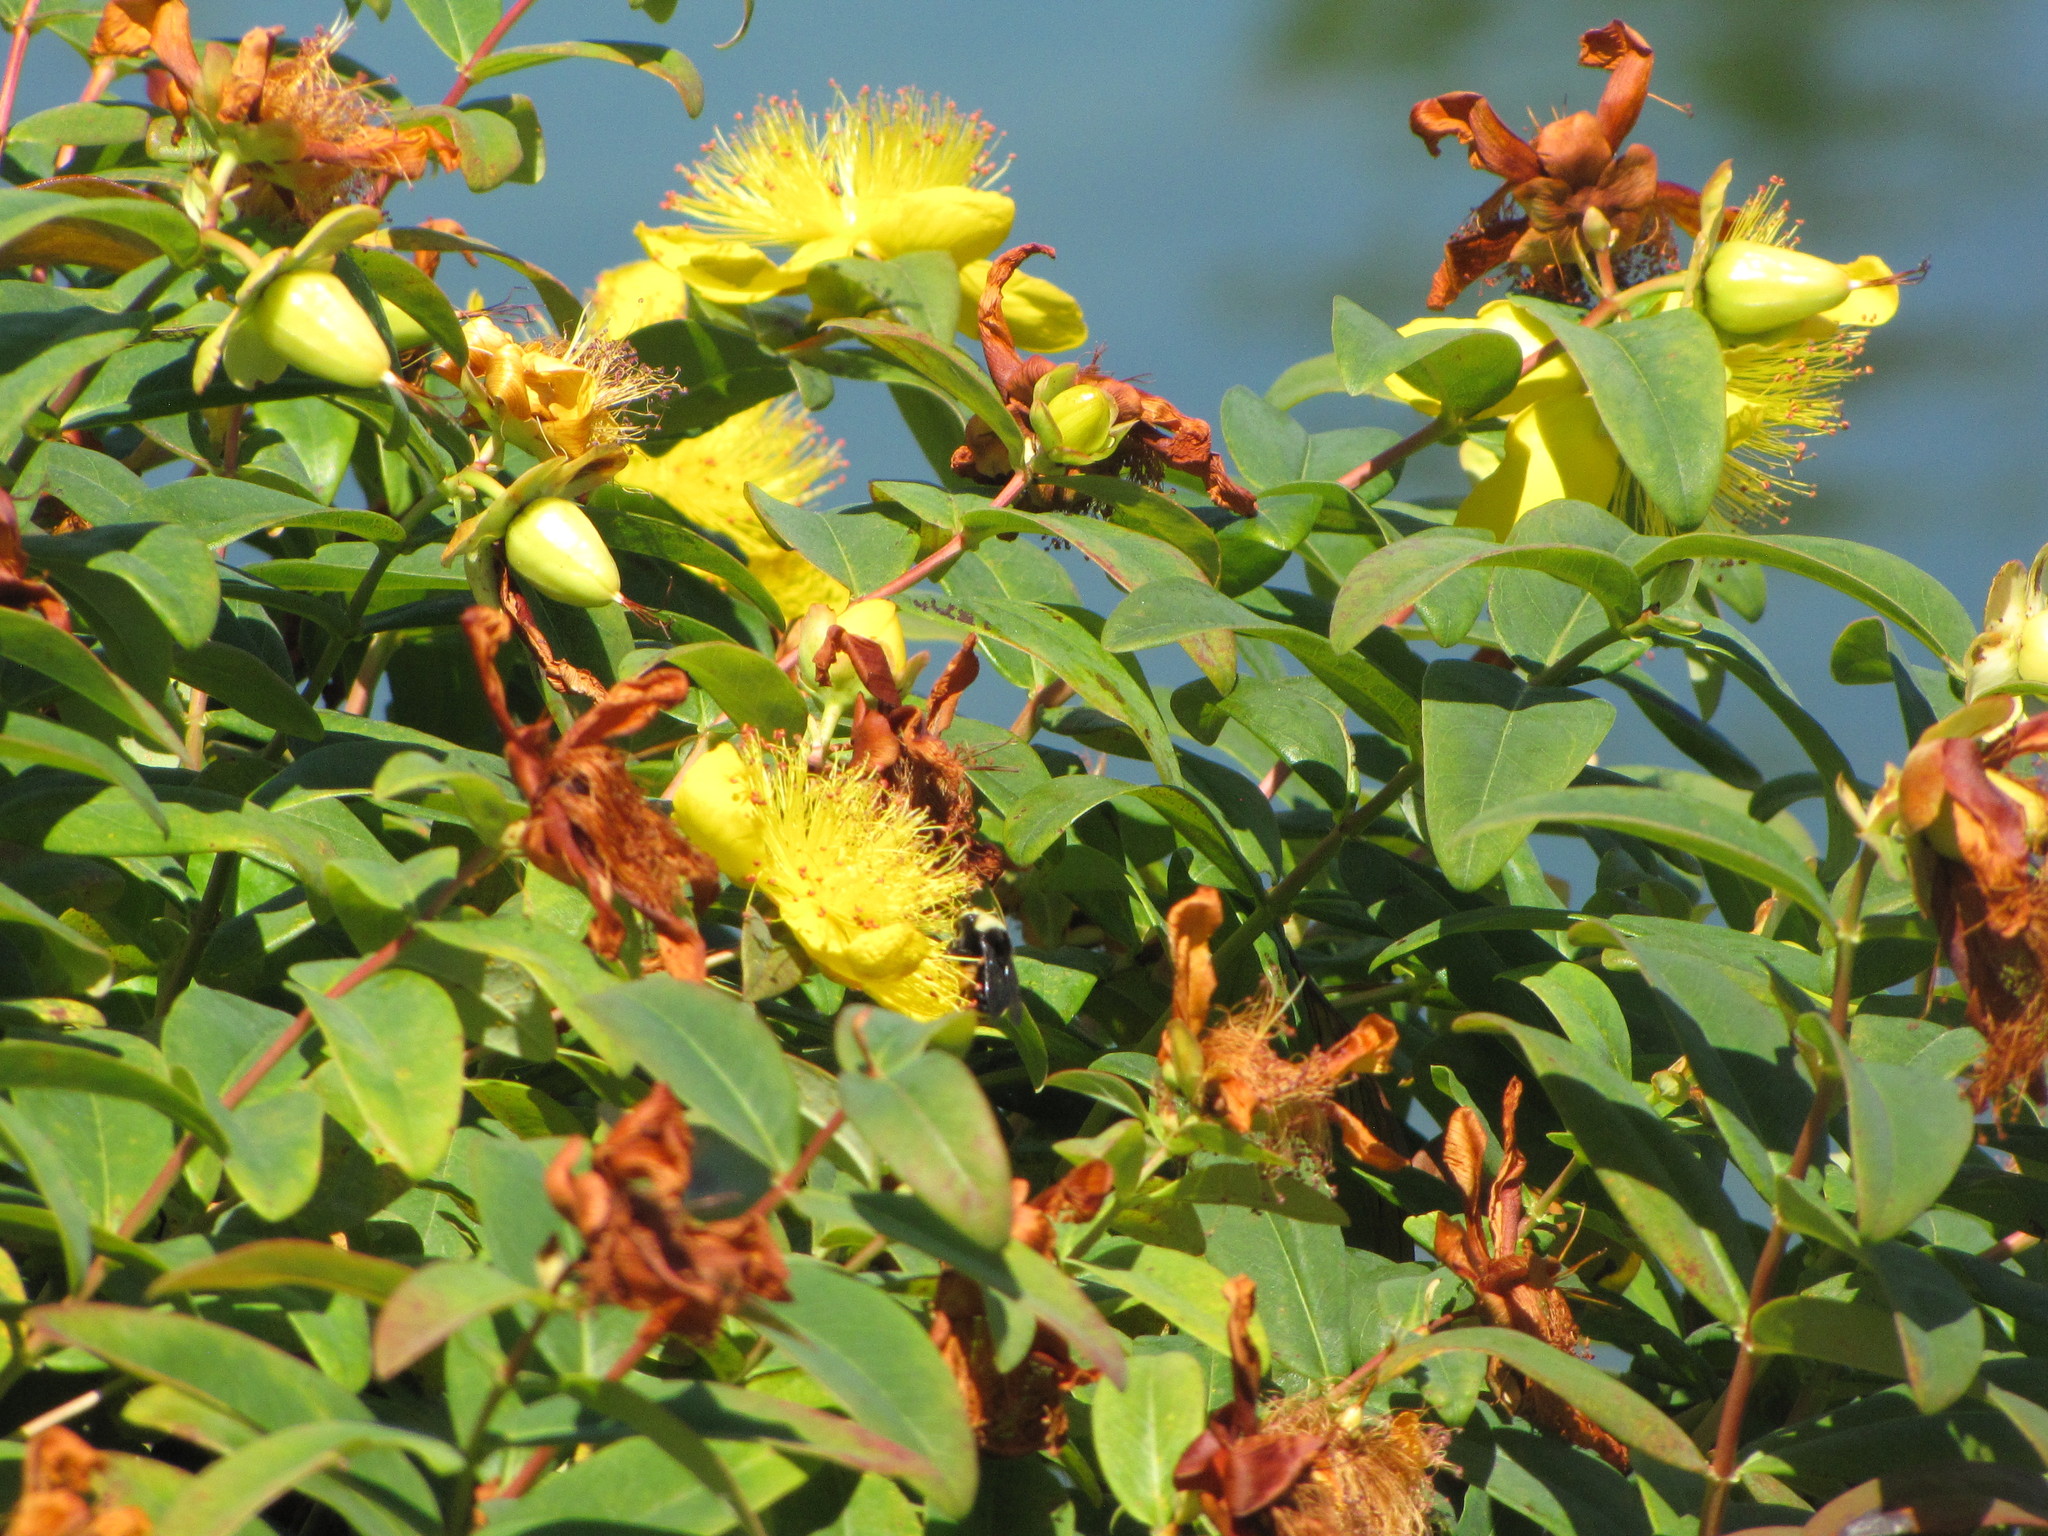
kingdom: Plantae
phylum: Tracheophyta
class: Magnoliopsida
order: Malpighiales
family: Hypericaceae
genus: Hypericum
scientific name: Hypericum calycinum
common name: Rose-of-sharon
